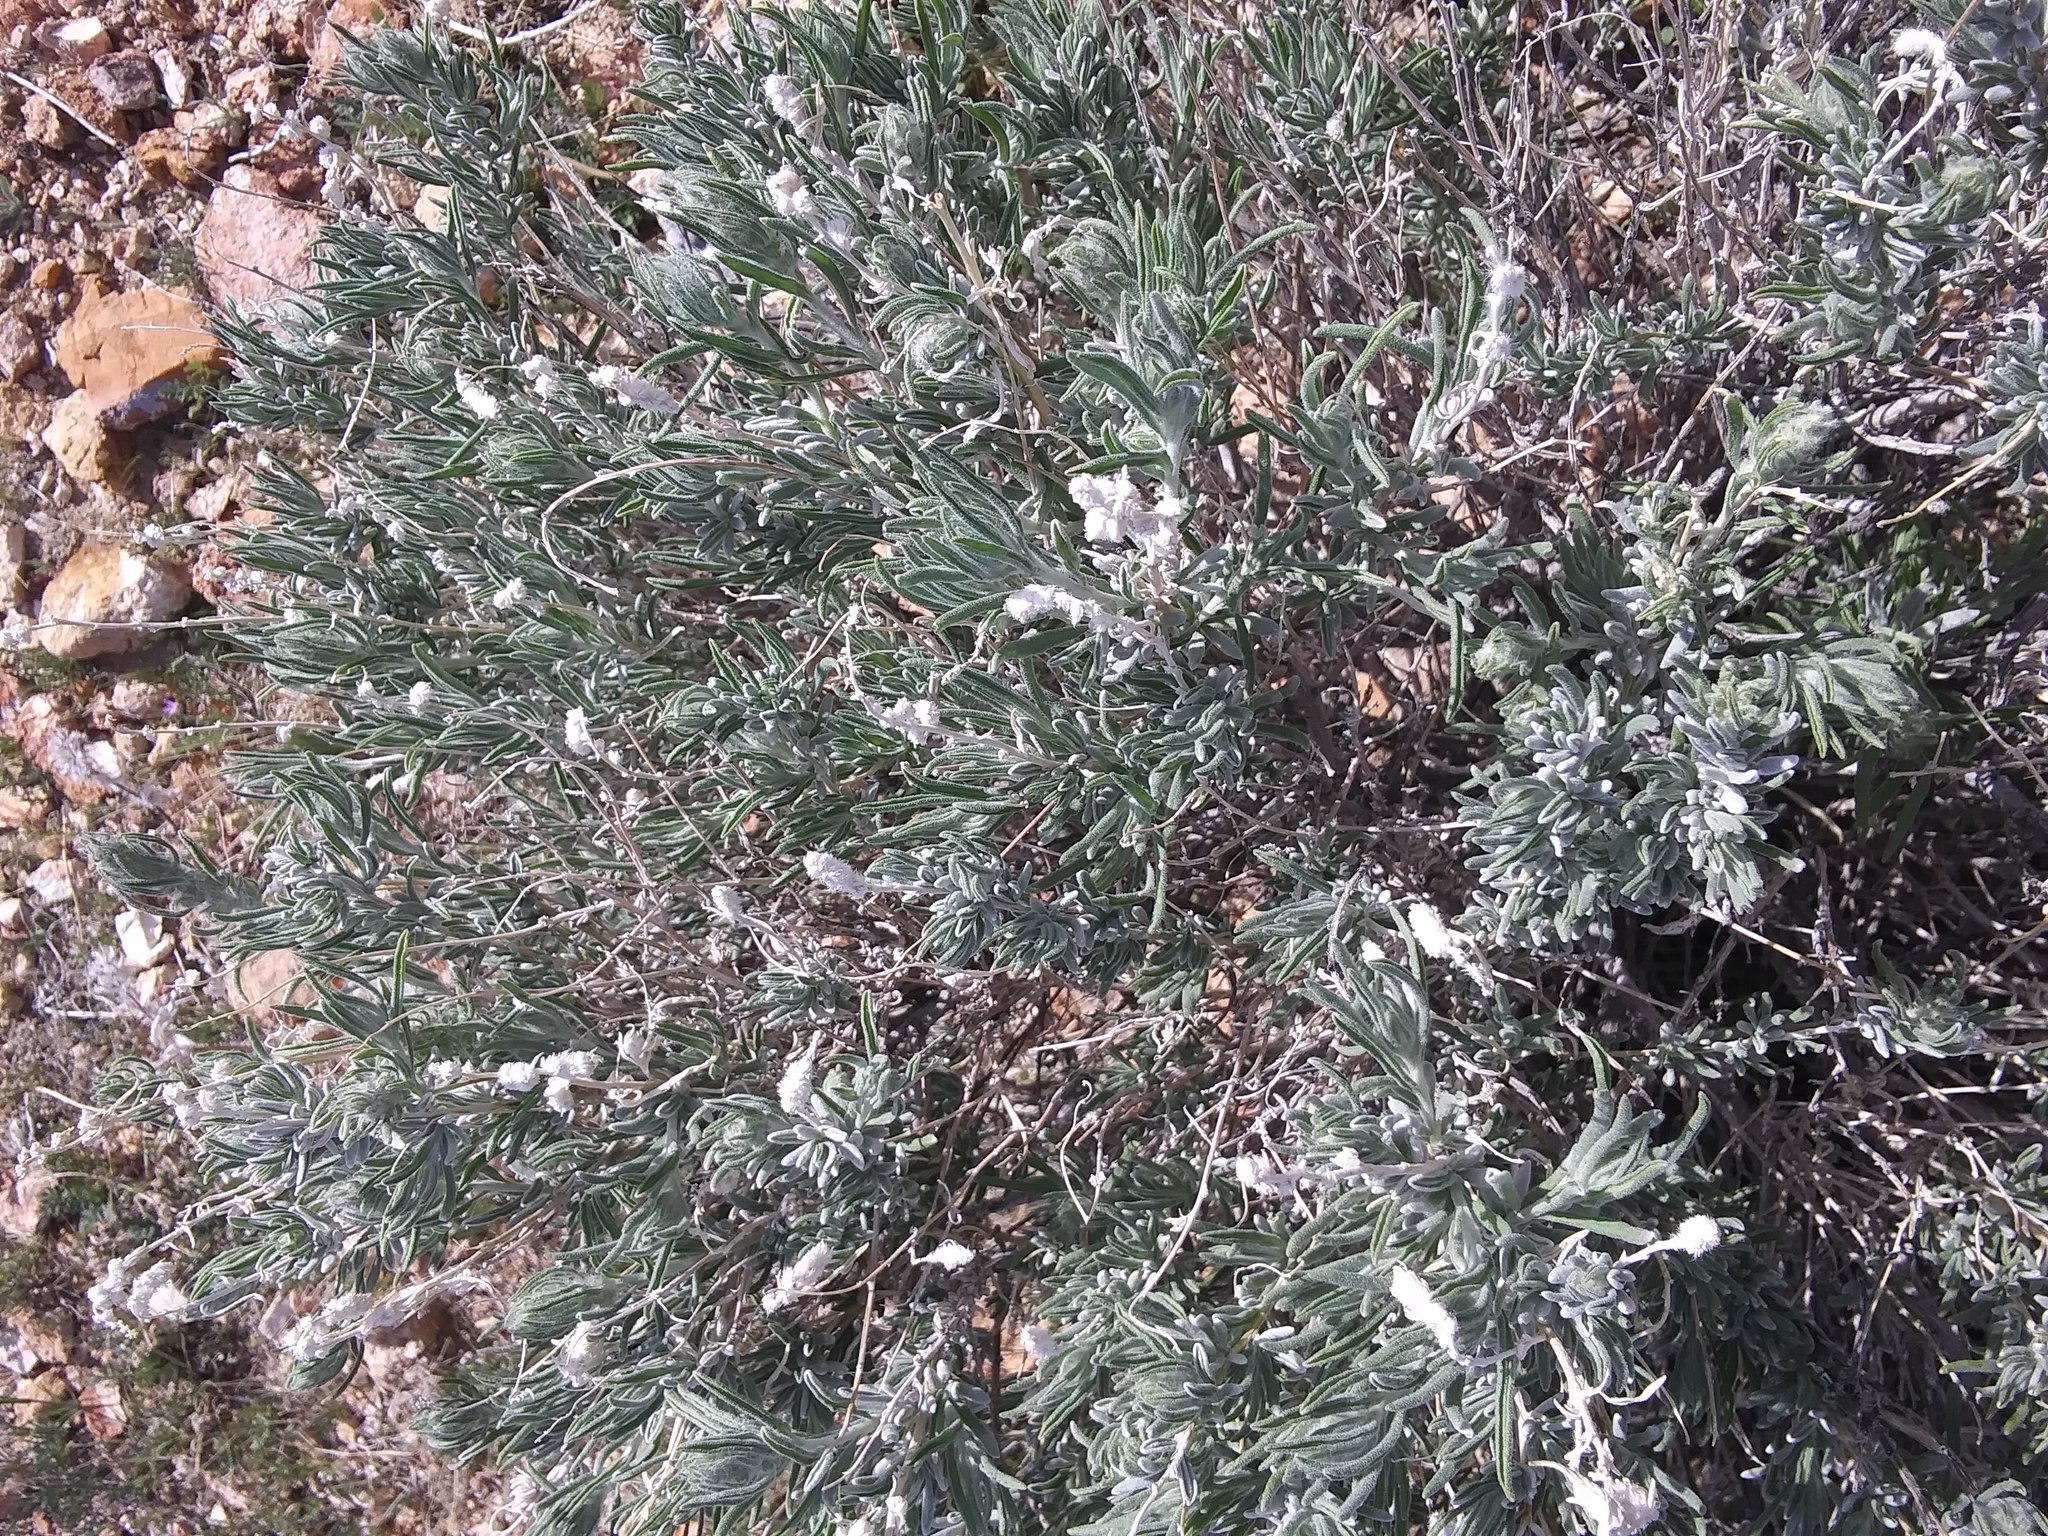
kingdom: Plantae
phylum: Tracheophyta
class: Magnoliopsida
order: Caryophyllales
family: Amaranthaceae
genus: Krascheninnikovia
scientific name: Krascheninnikovia lanata
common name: Winterfat
